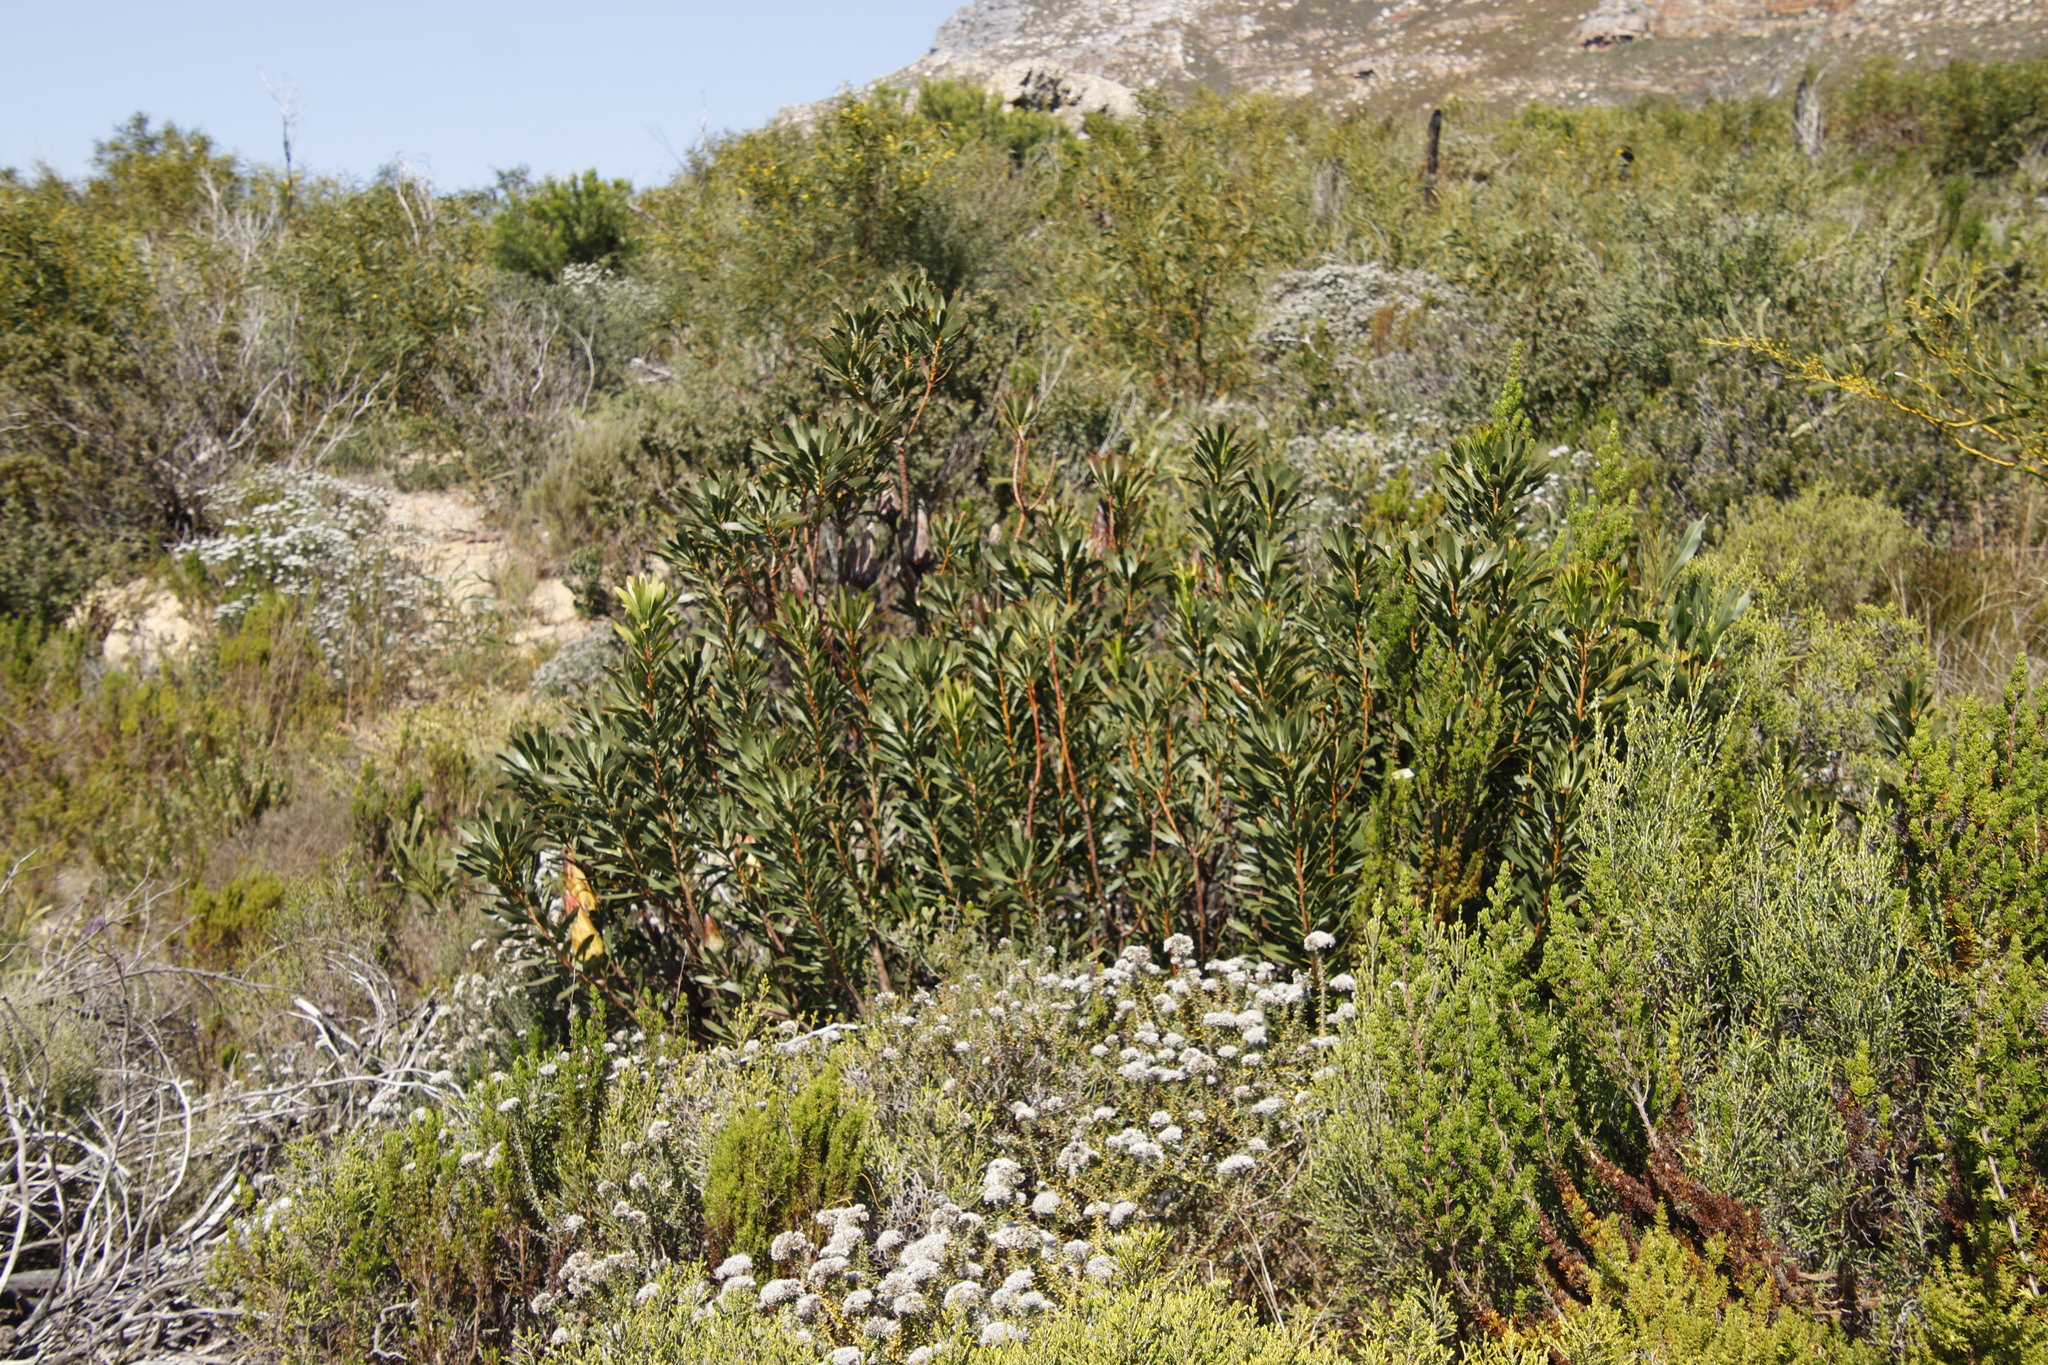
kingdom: Plantae
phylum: Tracheophyta
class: Magnoliopsida
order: Proteales
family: Proteaceae
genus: Protea
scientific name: Protea repens
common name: Sugarbush
